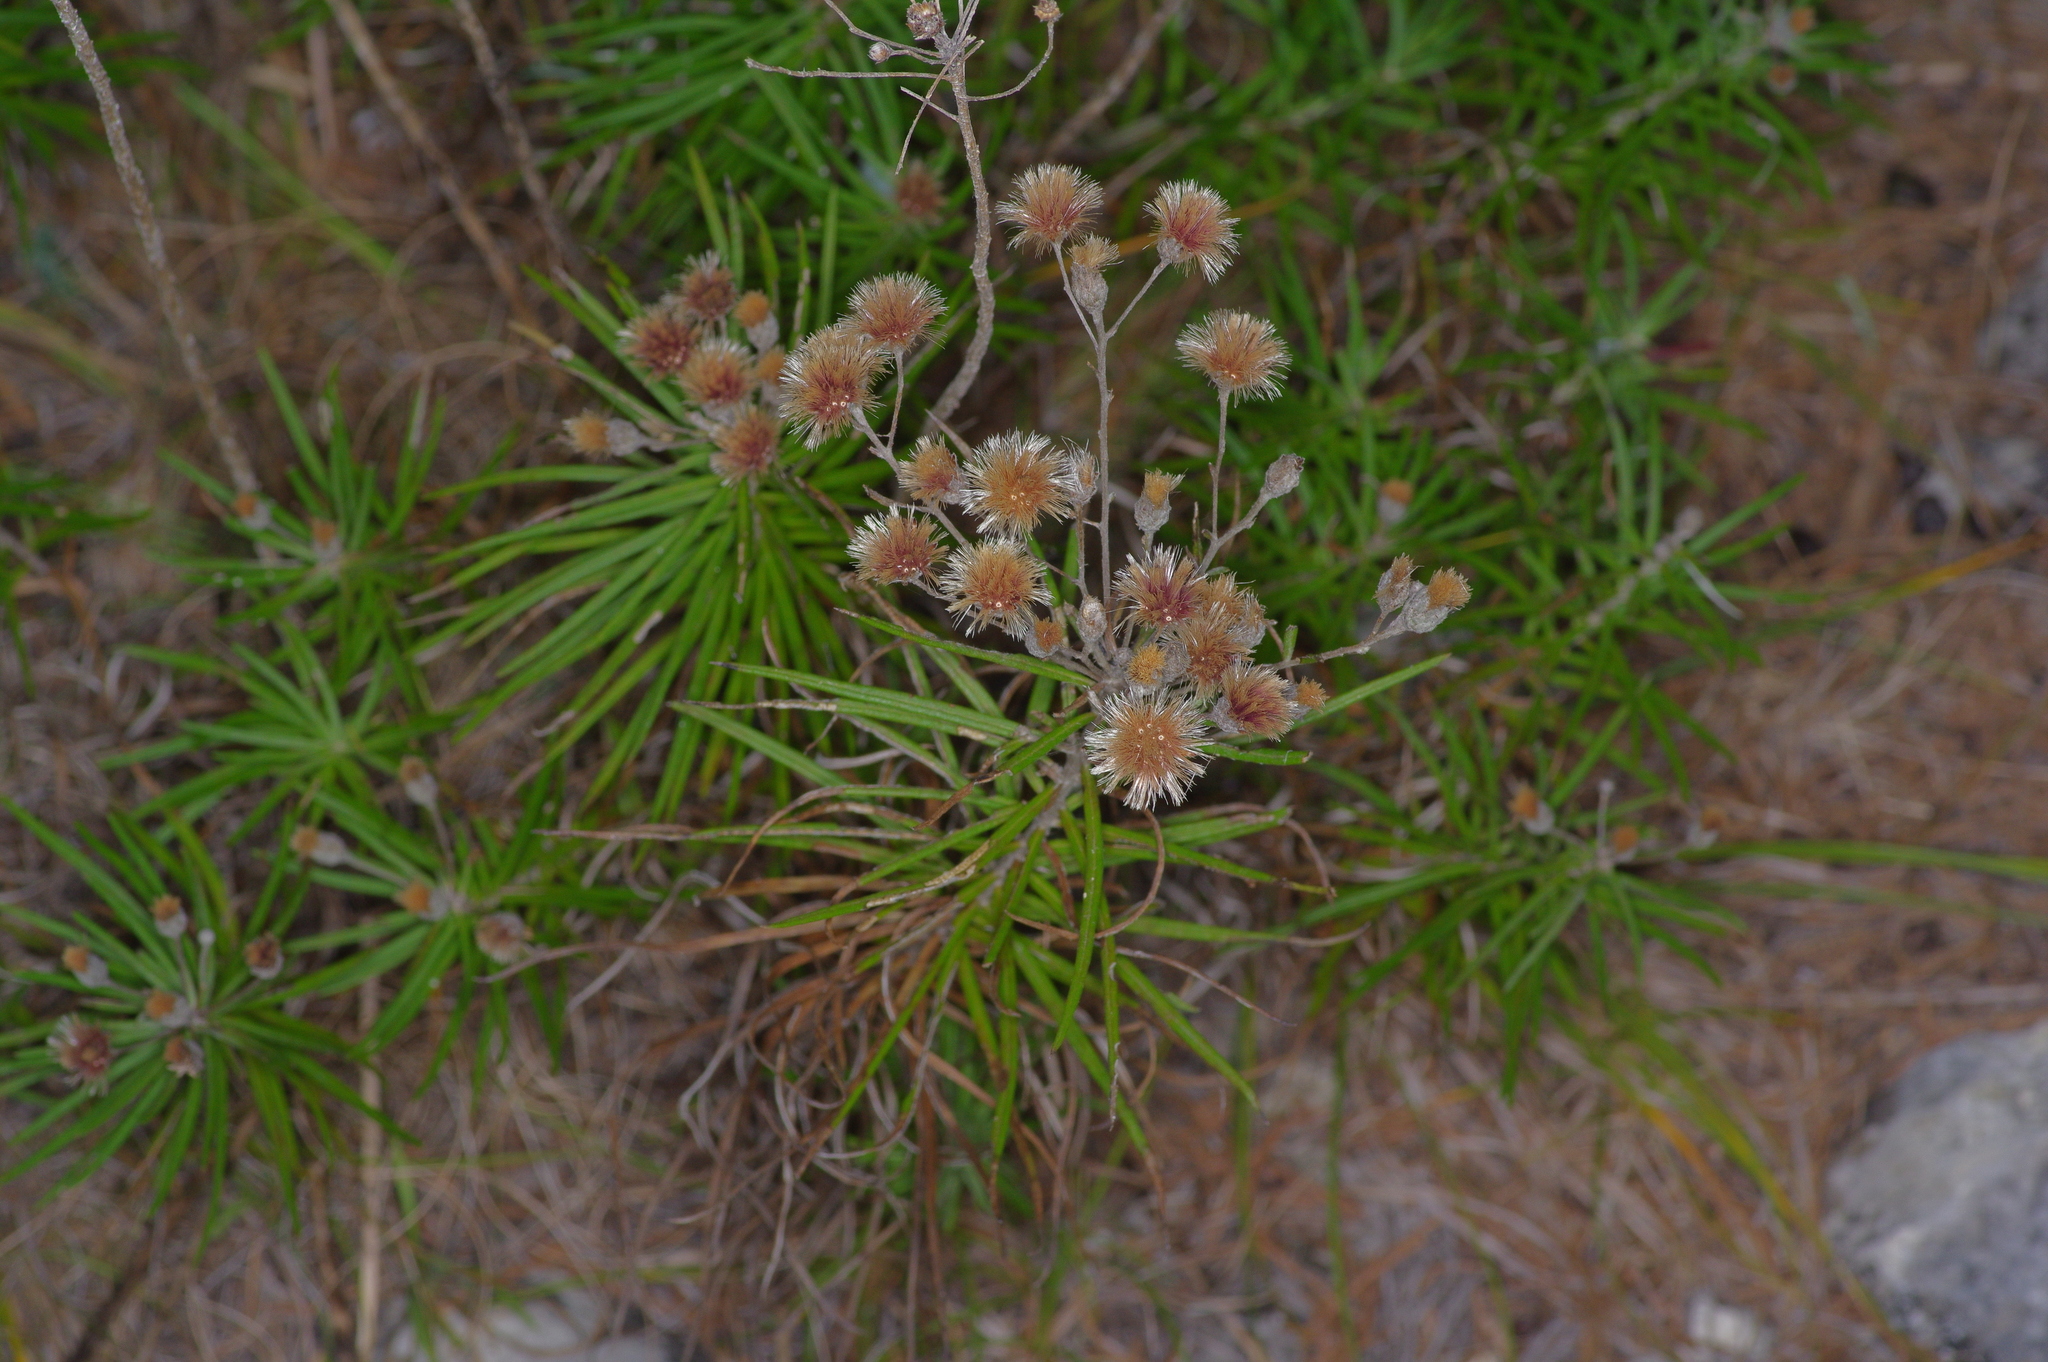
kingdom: Plantae
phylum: Tracheophyta
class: Magnoliopsida
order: Asterales
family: Asteraceae
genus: Vernonia
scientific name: Vernonia lindheimeri
